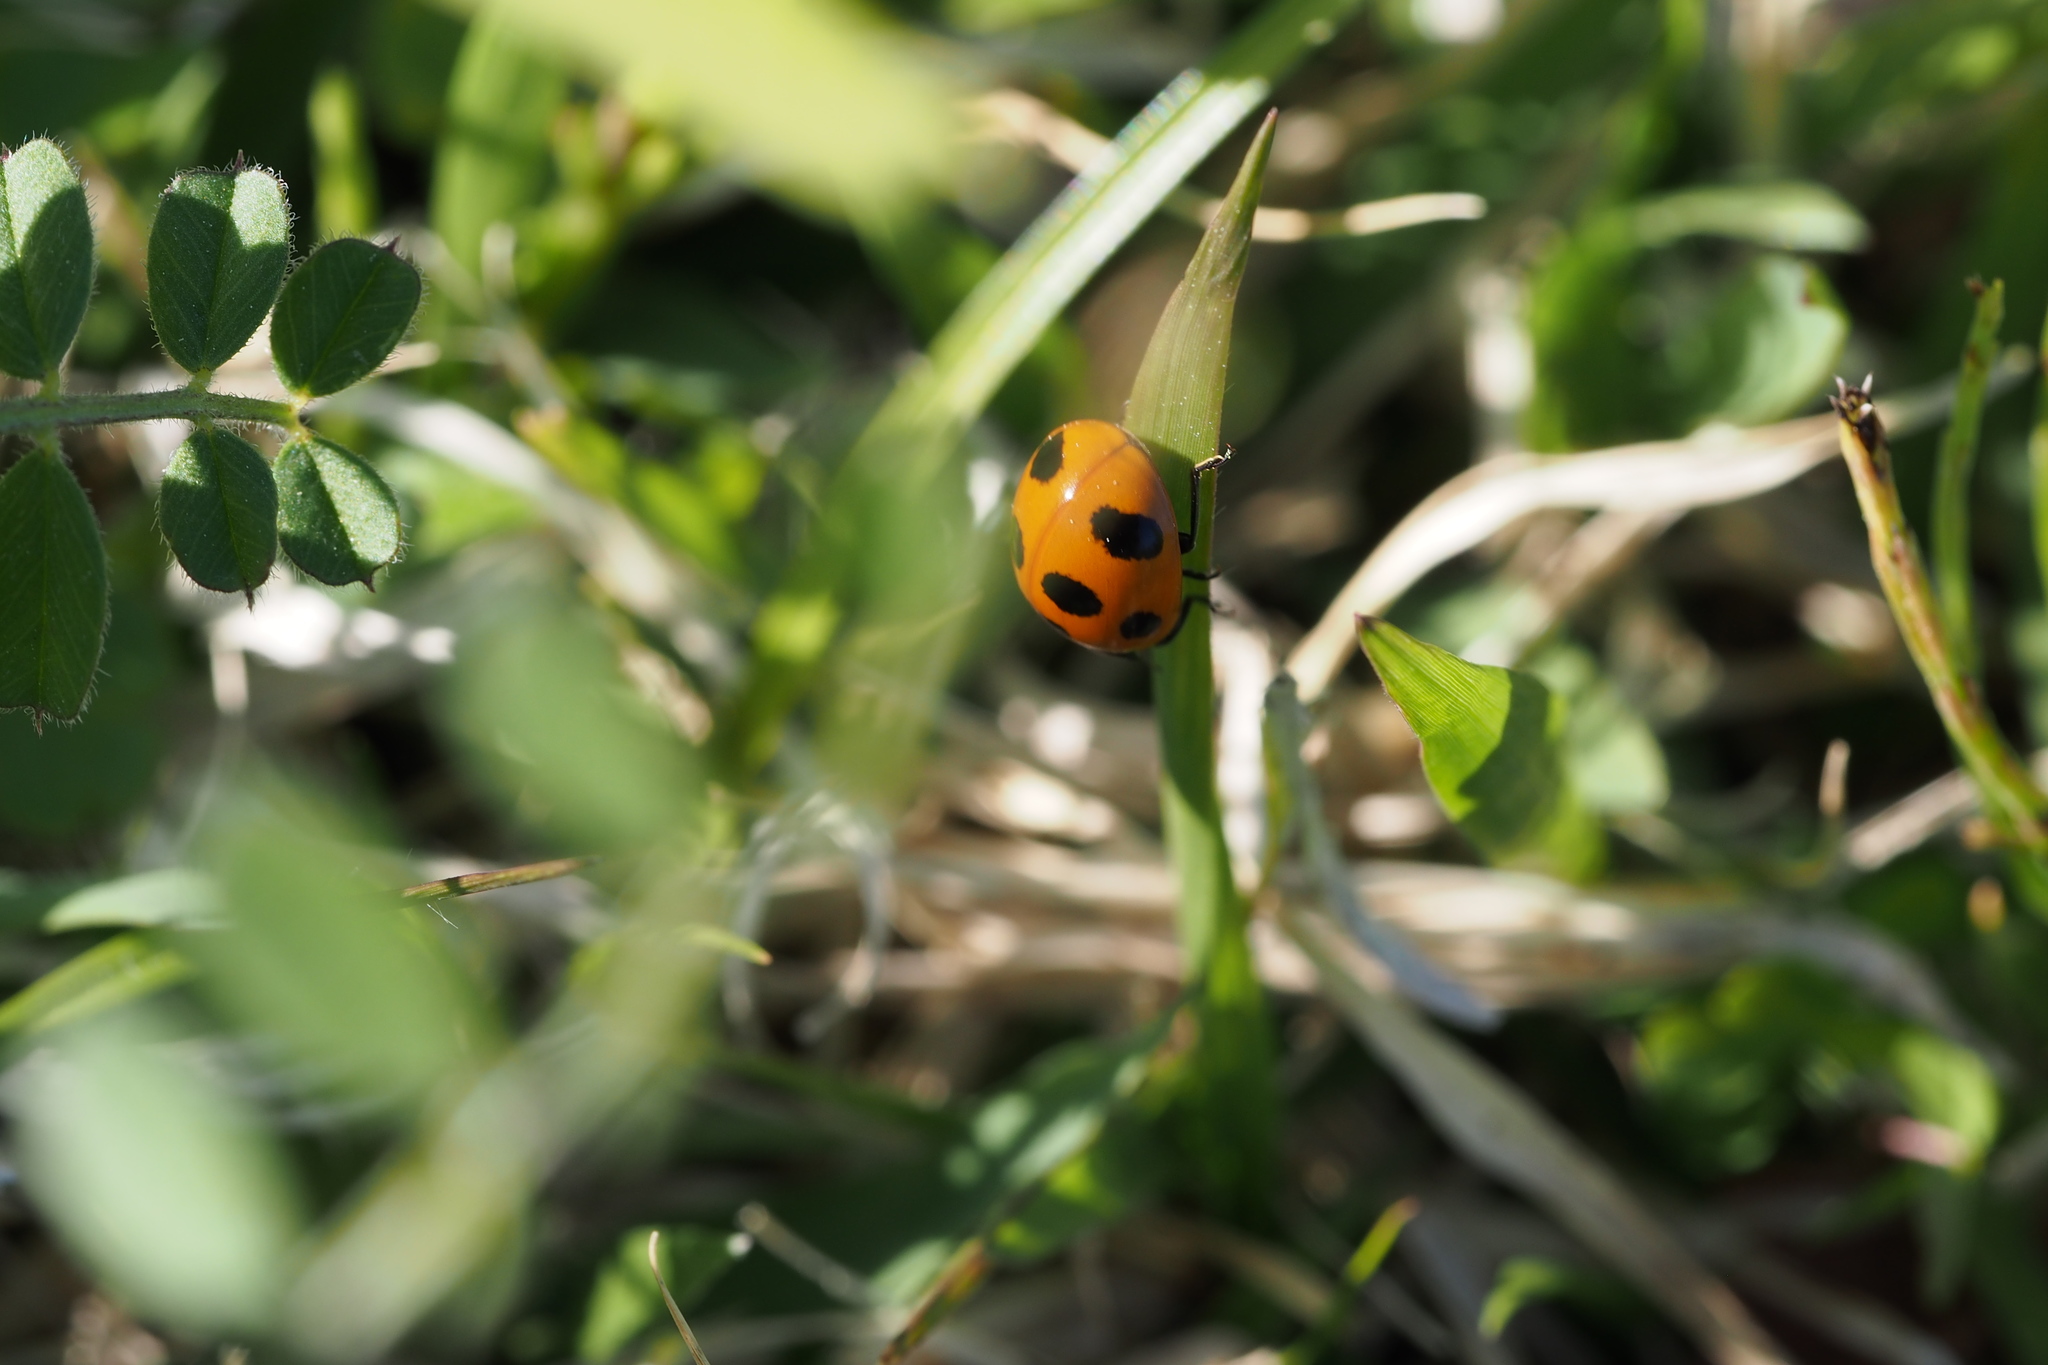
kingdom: Animalia
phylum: Arthropoda
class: Insecta
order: Coleoptera
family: Coccinellidae
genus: Coccinella
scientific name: Coccinella septempunctata
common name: Sevenspotted lady beetle
